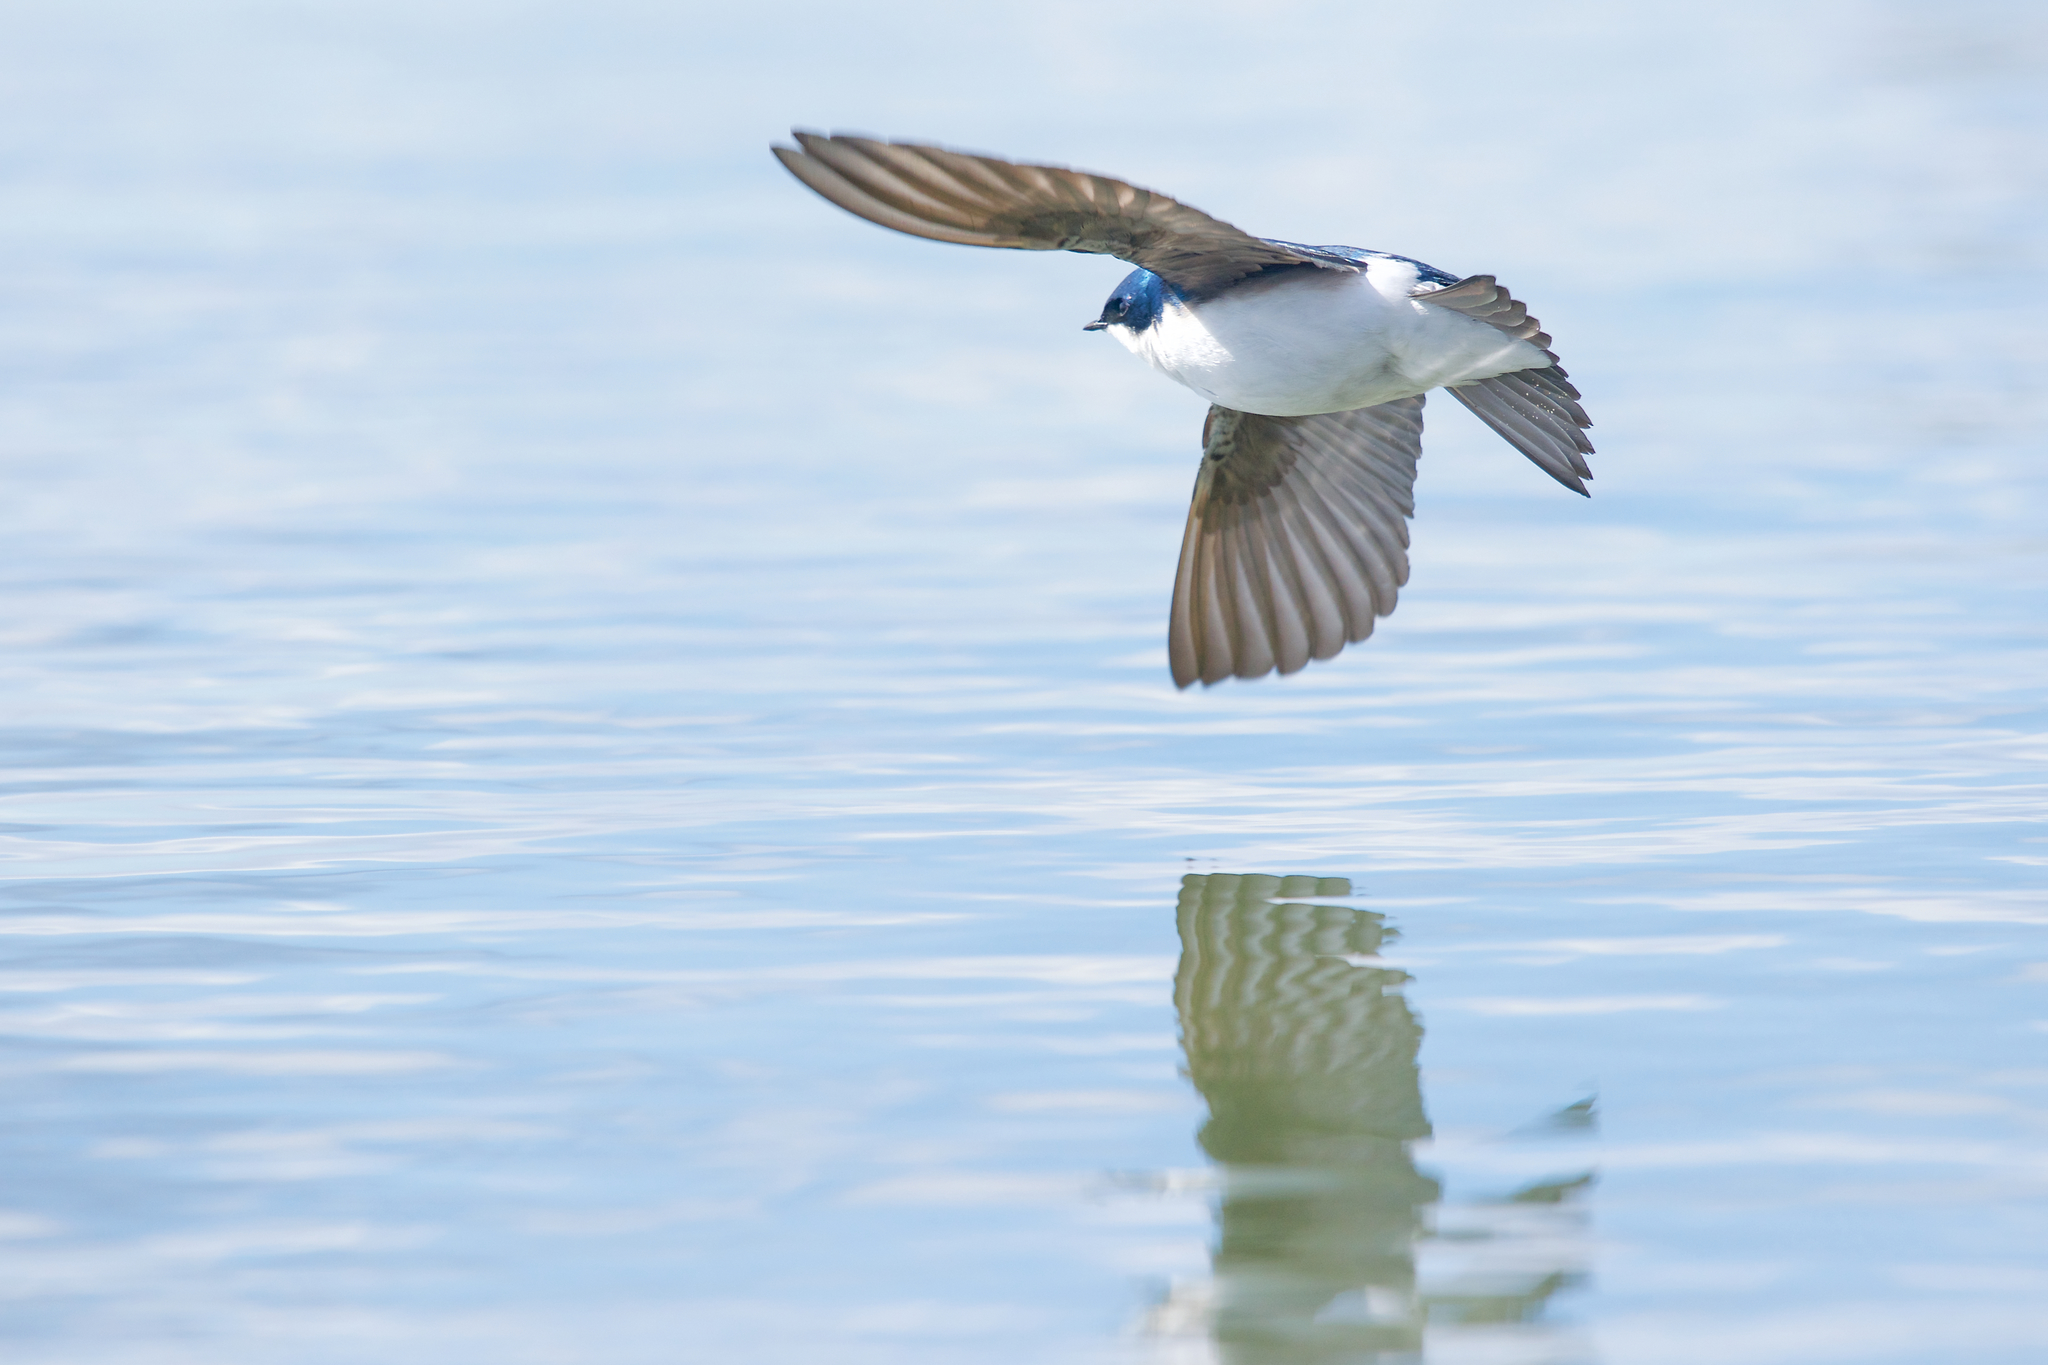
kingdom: Animalia
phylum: Chordata
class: Aves
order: Passeriformes
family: Hirundinidae
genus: Tachycineta
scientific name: Tachycineta bicolor
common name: Tree swallow
